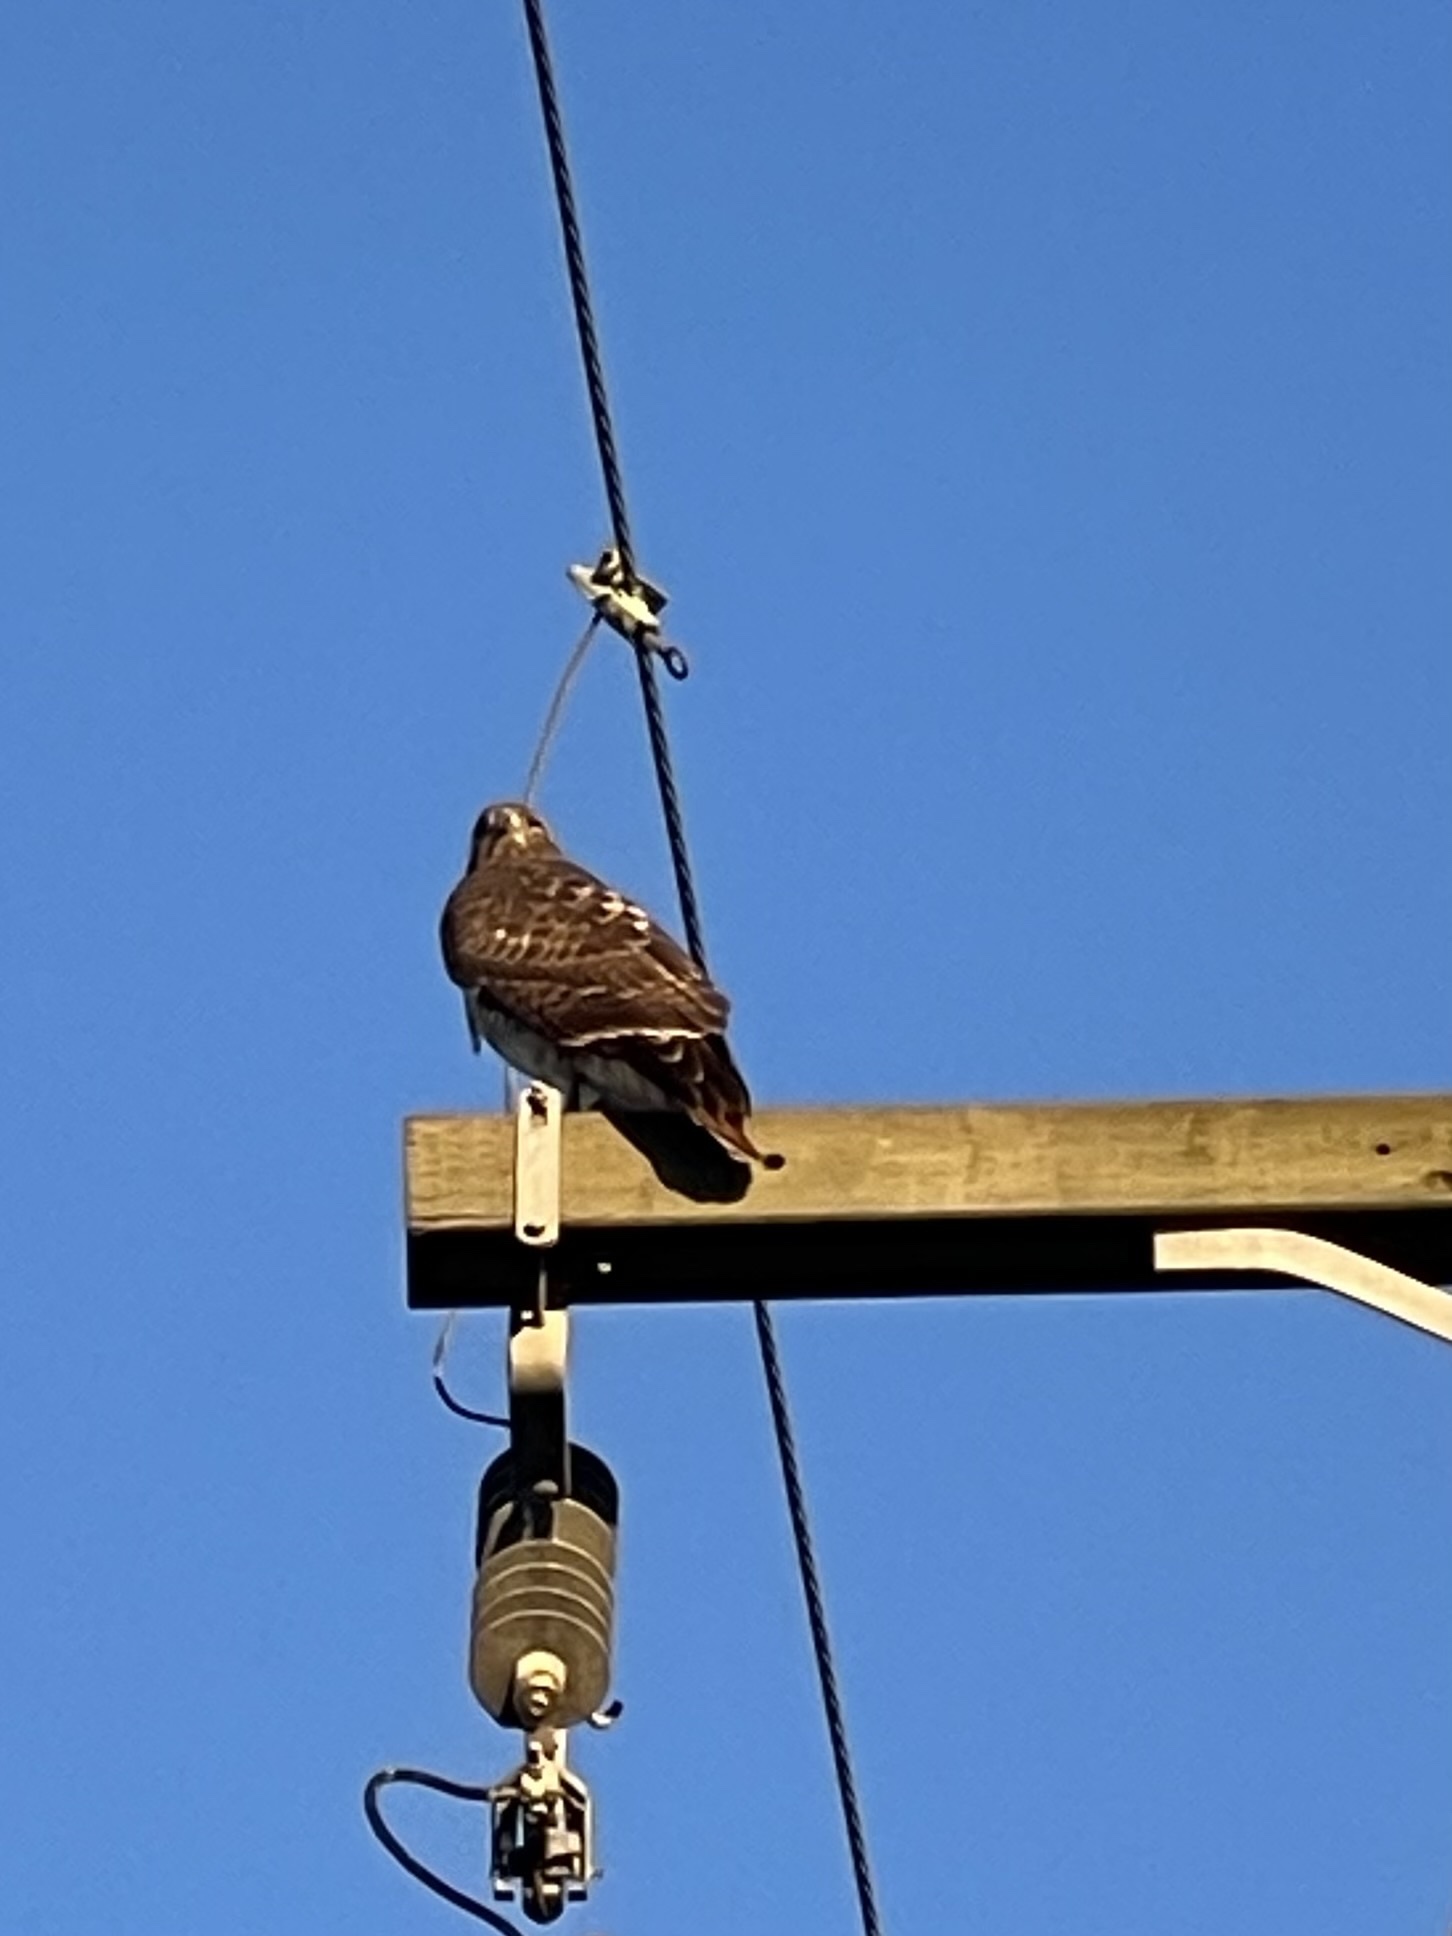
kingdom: Animalia
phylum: Chordata
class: Aves
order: Accipitriformes
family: Accipitridae
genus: Buteo
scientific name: Buteo jamaicensis
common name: Red-tailed hawk
